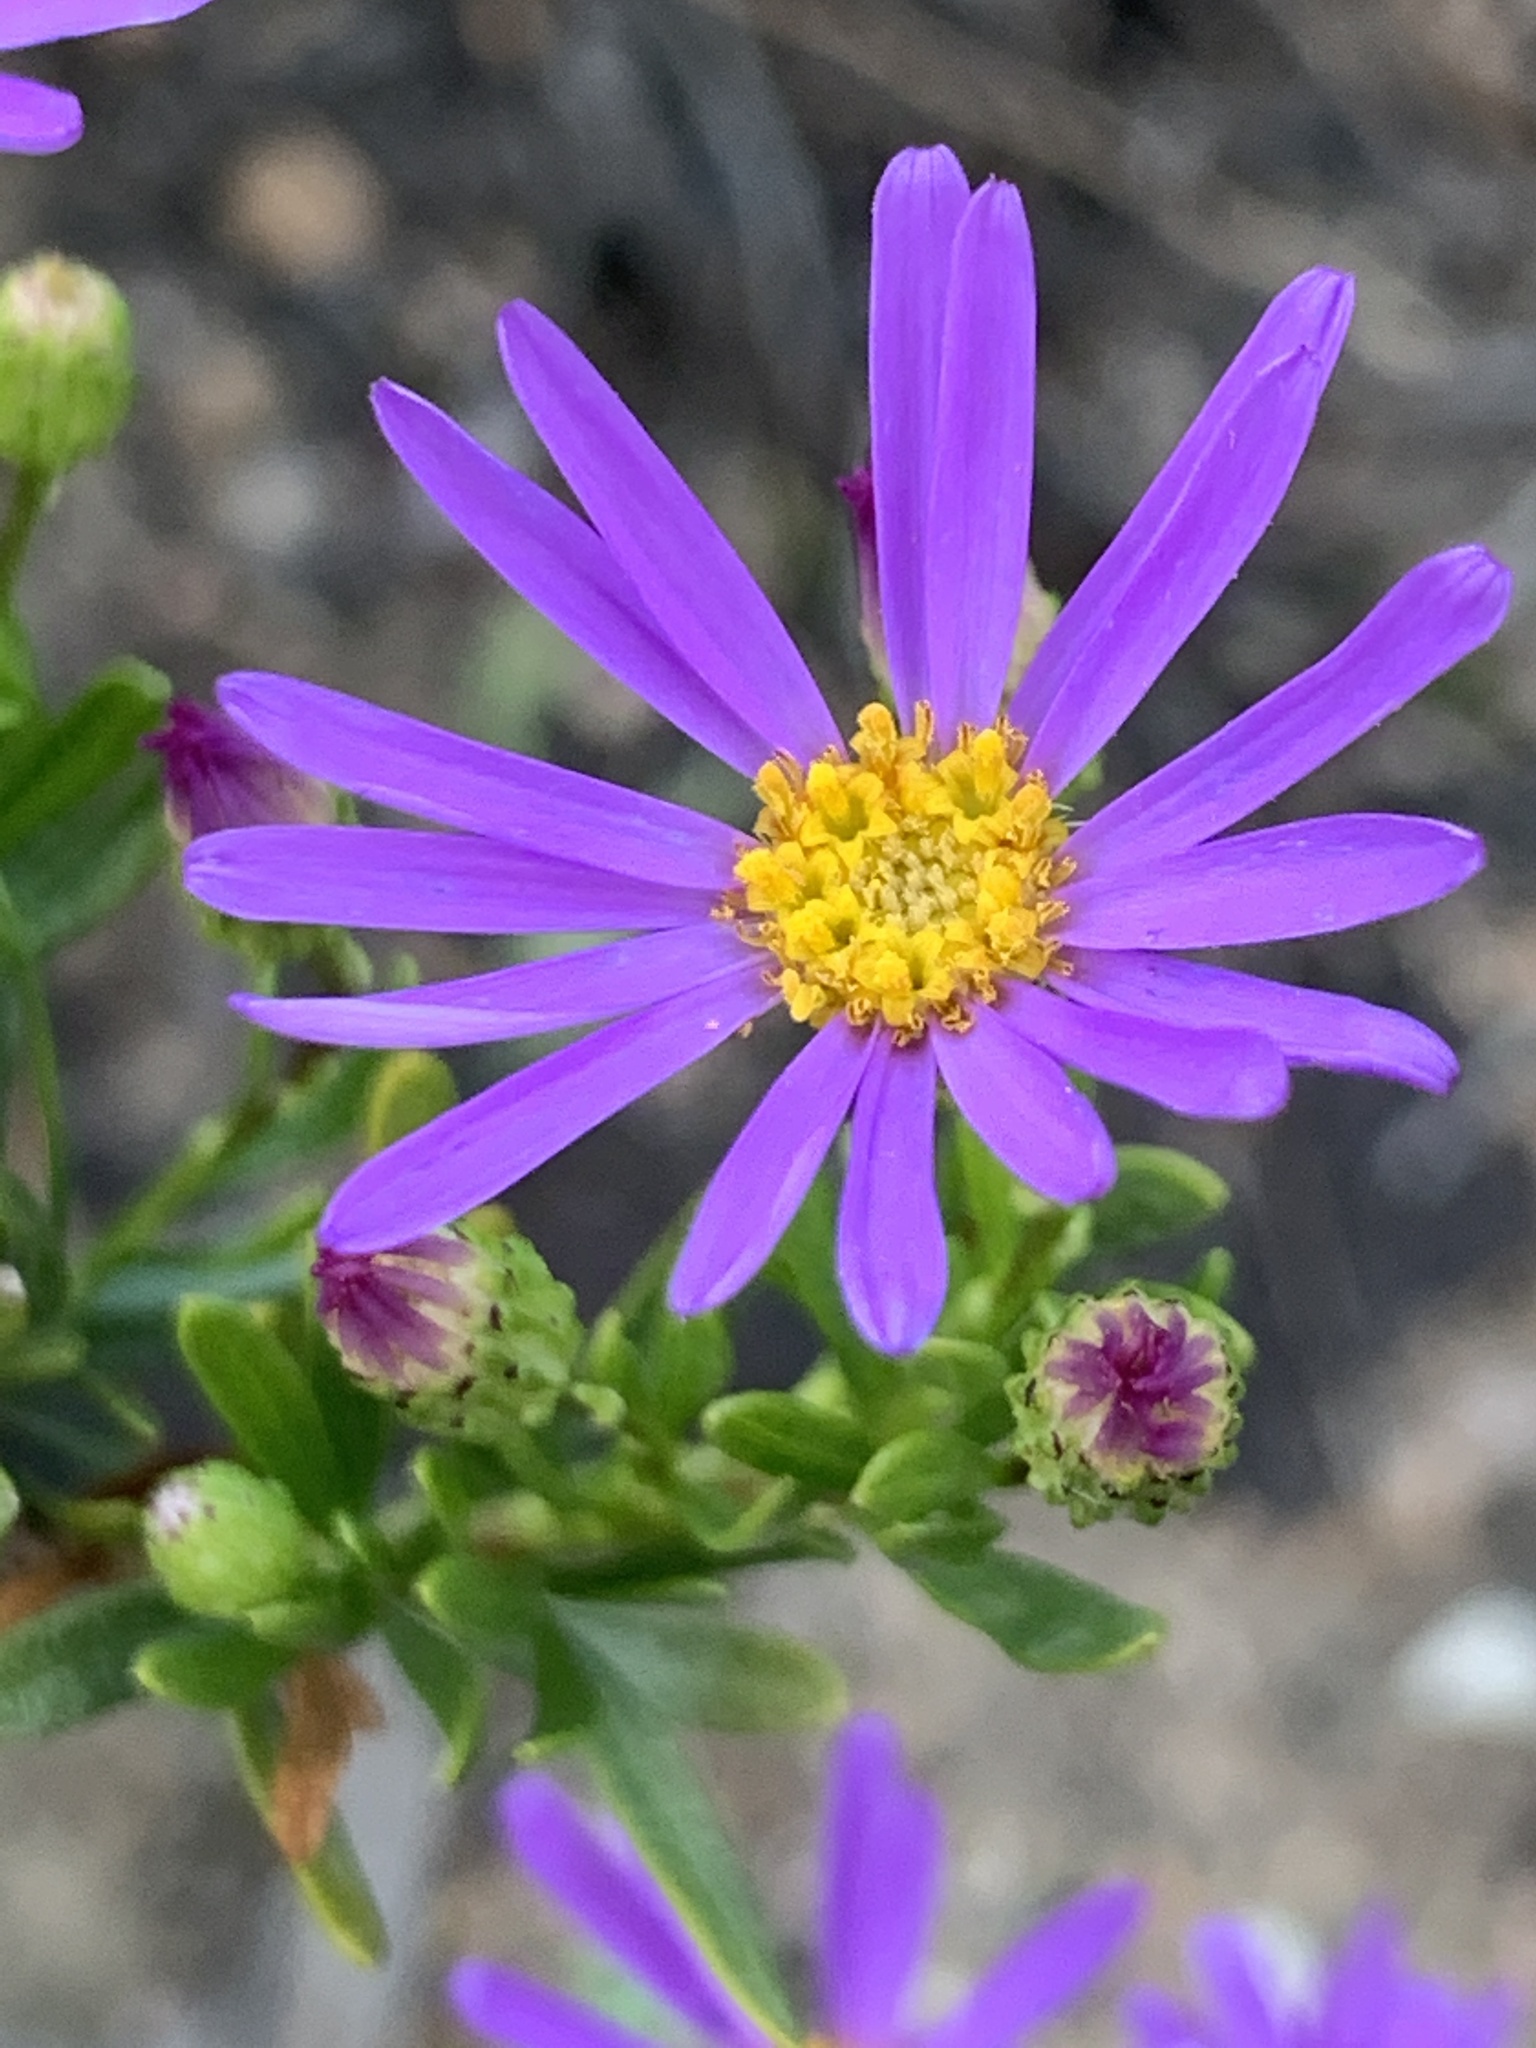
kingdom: Plantae
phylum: Tracheophyta
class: Magnoliopsida
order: Asterales
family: Asteraceae
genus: Felicia
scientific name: Felicia fruticosa
